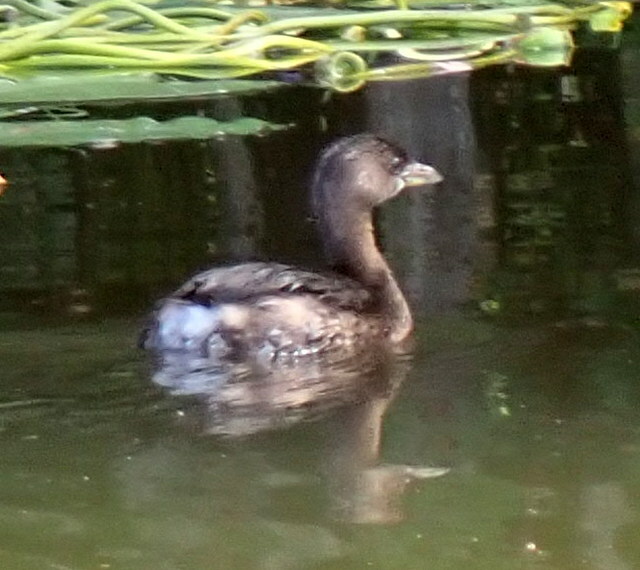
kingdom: Animalia
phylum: Chordata
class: Aves
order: Podicipediformes
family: Podicipedidae
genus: Podilymbus
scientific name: Podilymbus podiceps
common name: Pied-billed grebe
